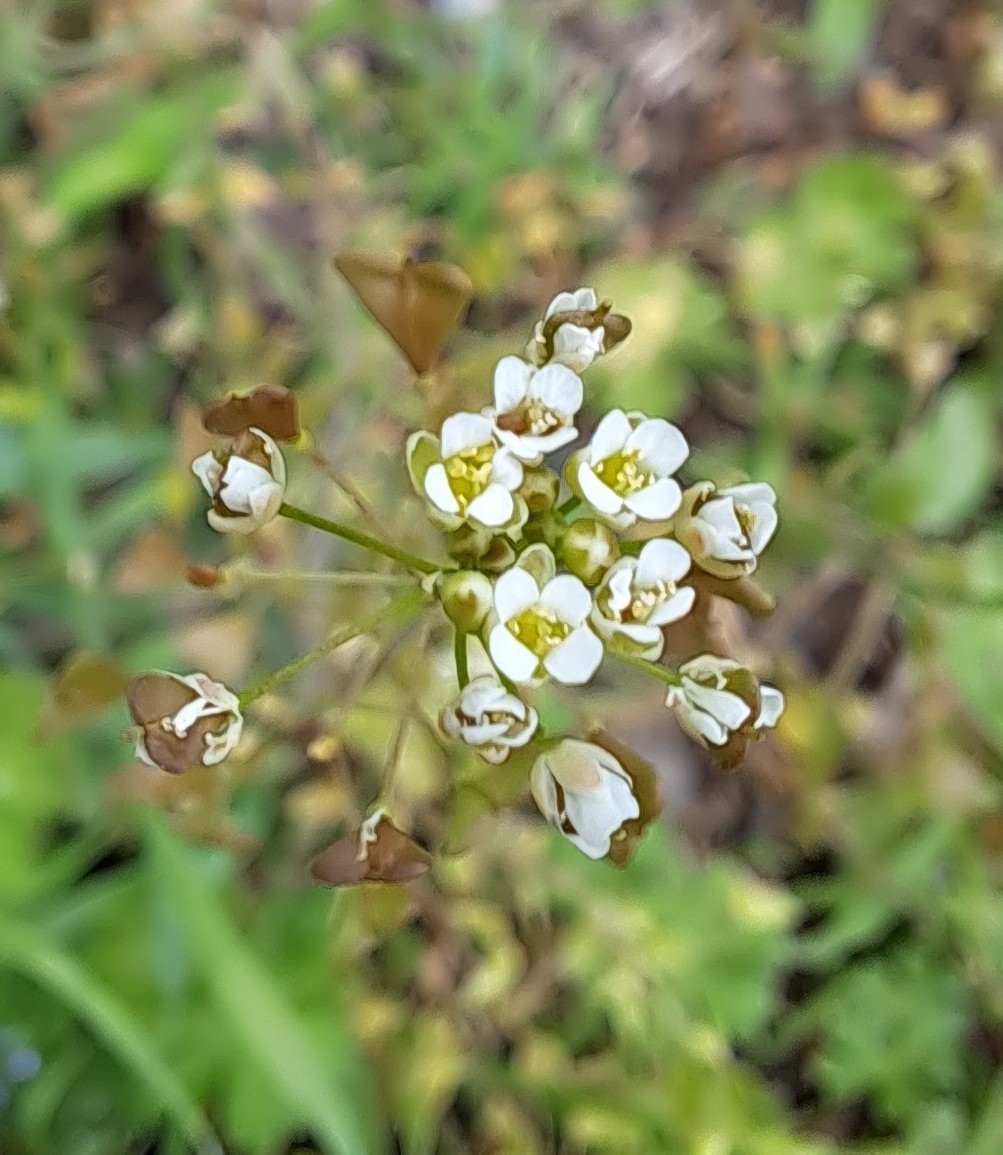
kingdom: Plantae
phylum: Tracheophyta
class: Magnoliopsida
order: Brassicales
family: Brassicaceae
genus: Capsella
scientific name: Capsella bursa-pastoris
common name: Shepherd's purse
